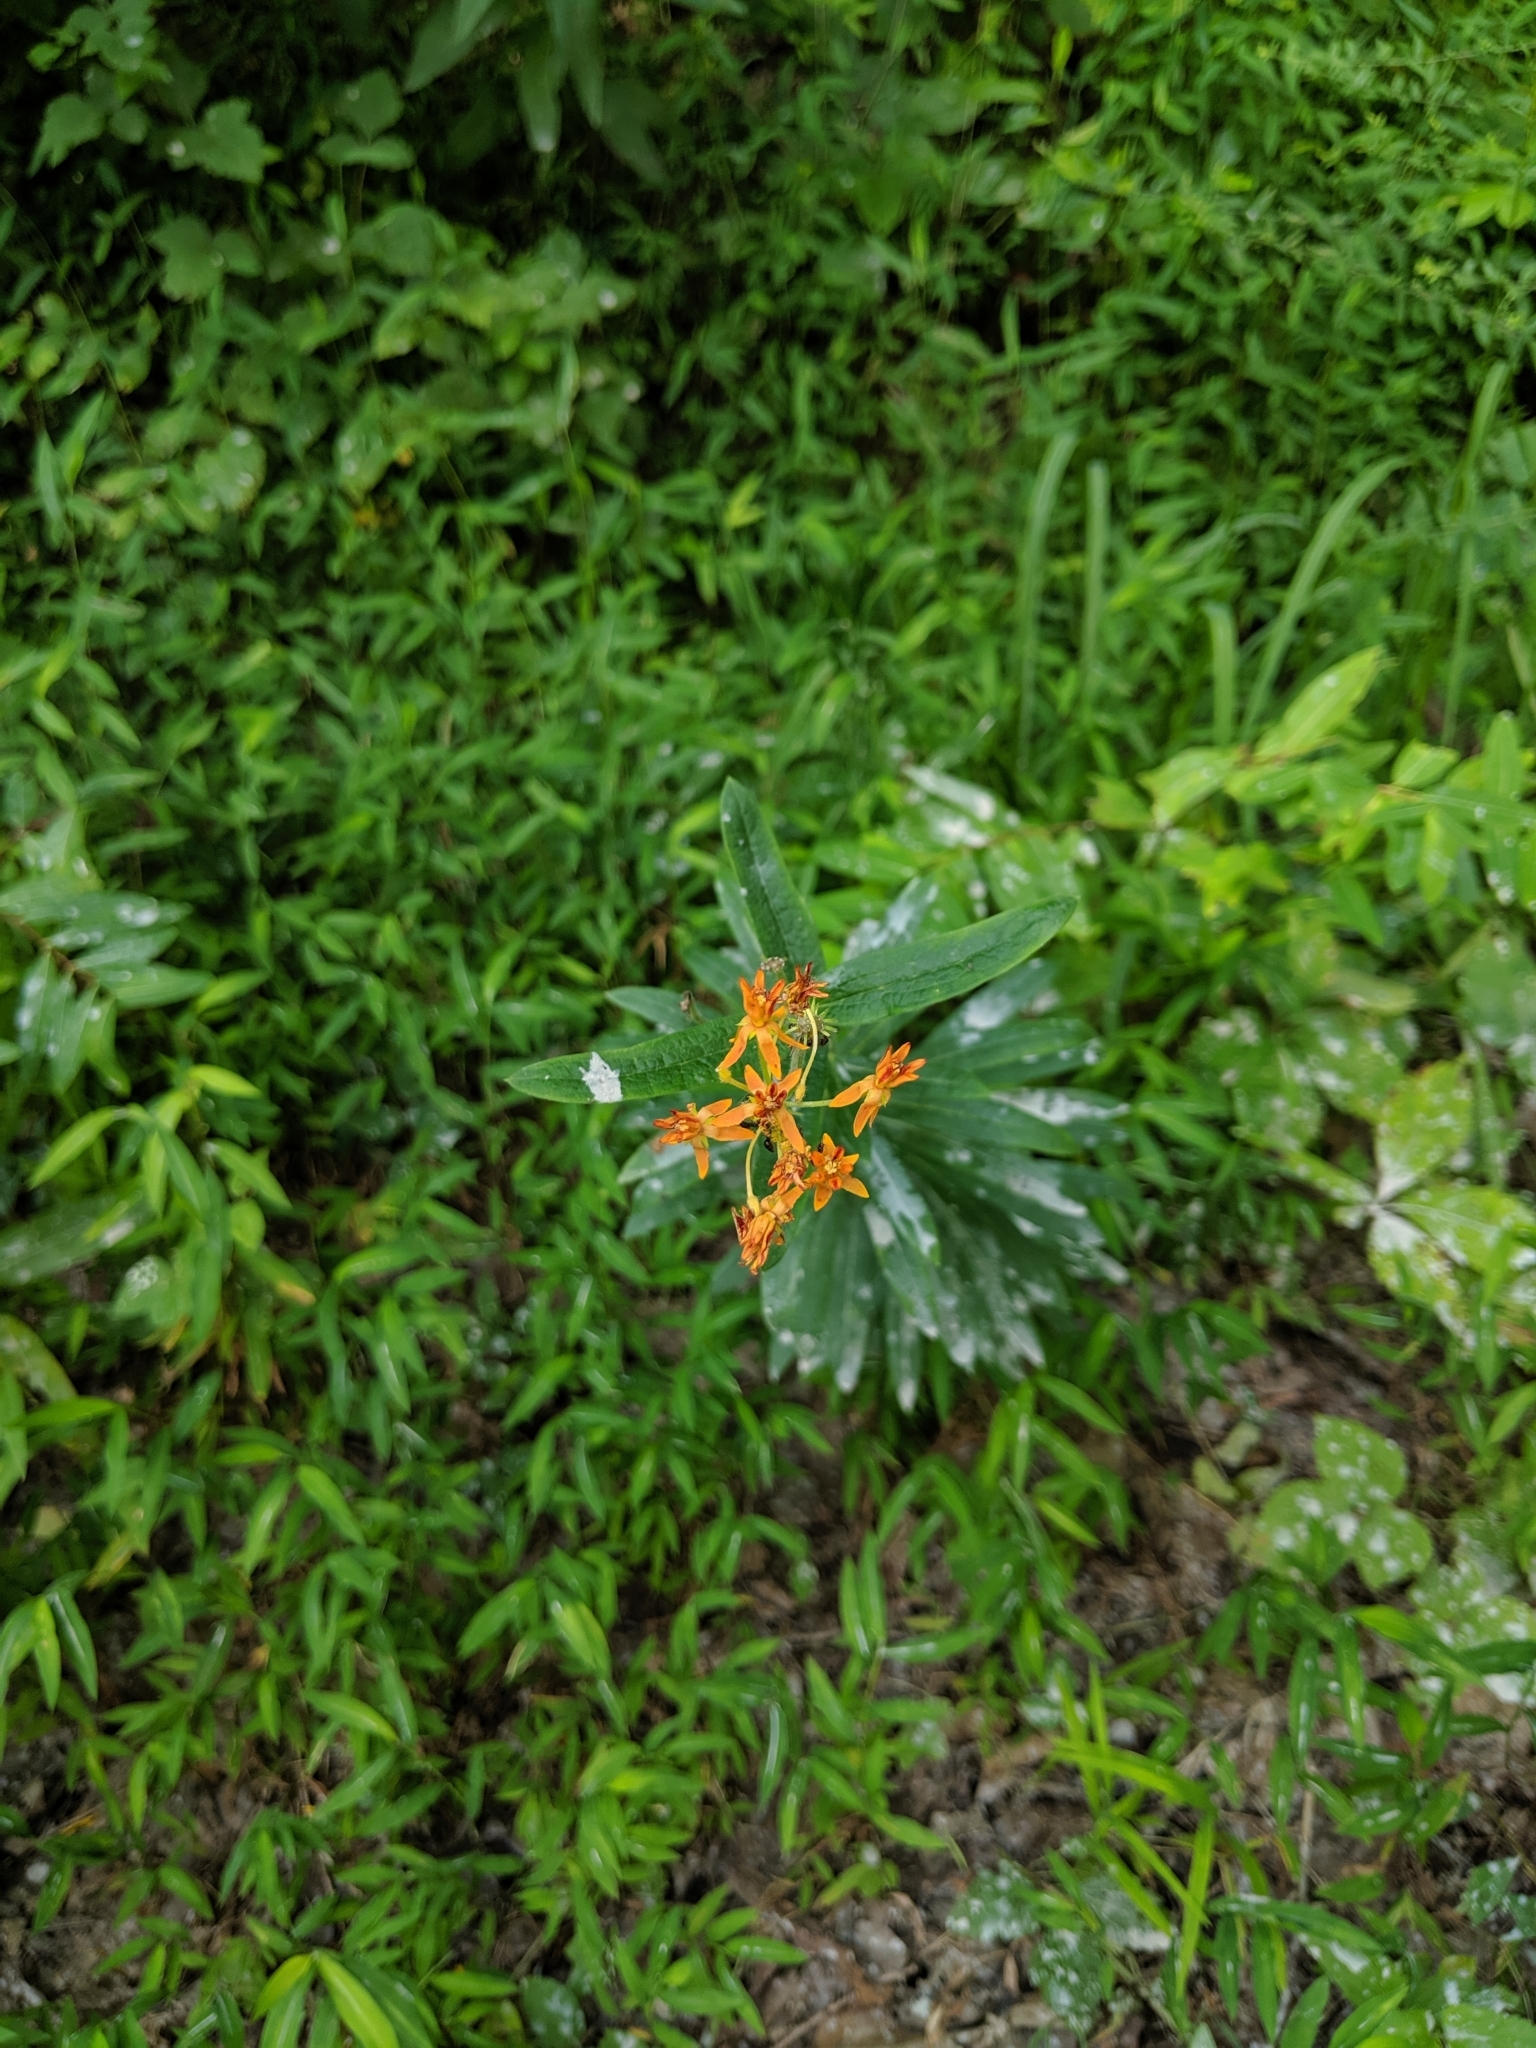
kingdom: Plantae
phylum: Tracheophyta
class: Magnoliopsida
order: Gentianales
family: Apocynaceae
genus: Asclepias
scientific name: Asclepias tuberosa
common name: Butterfly milkweed
